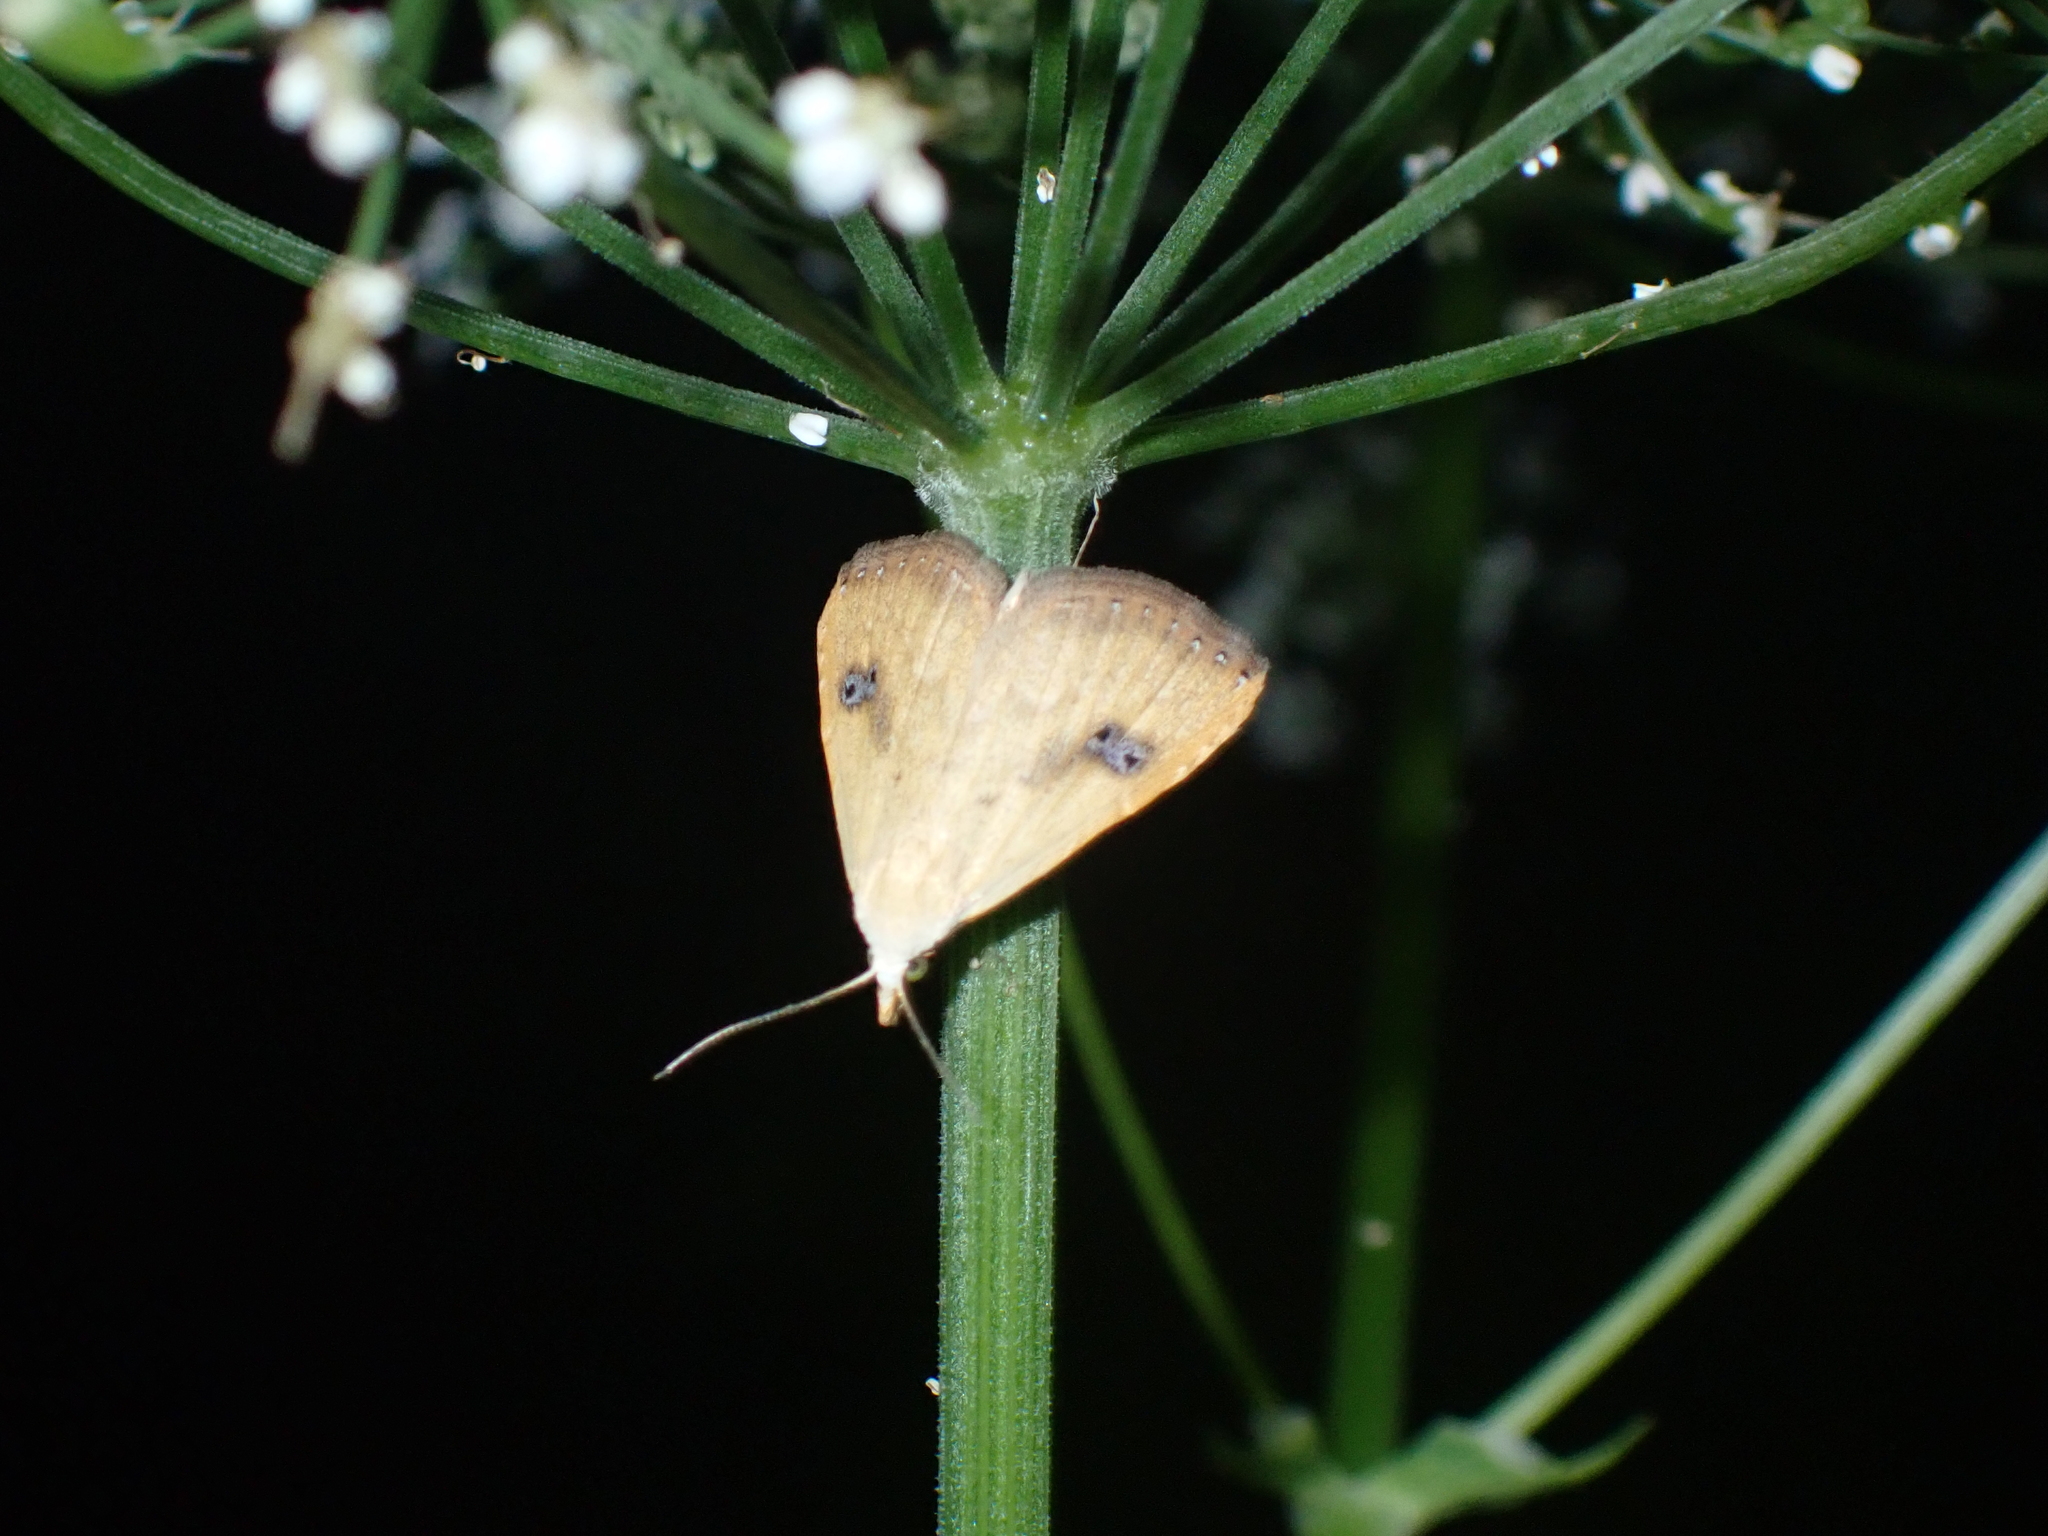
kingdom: Animalia
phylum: Arthropoda
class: Insecta
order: Lepidoptera
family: Erebidae
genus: Rivula
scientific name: Rivula sericealis
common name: Straw dot
